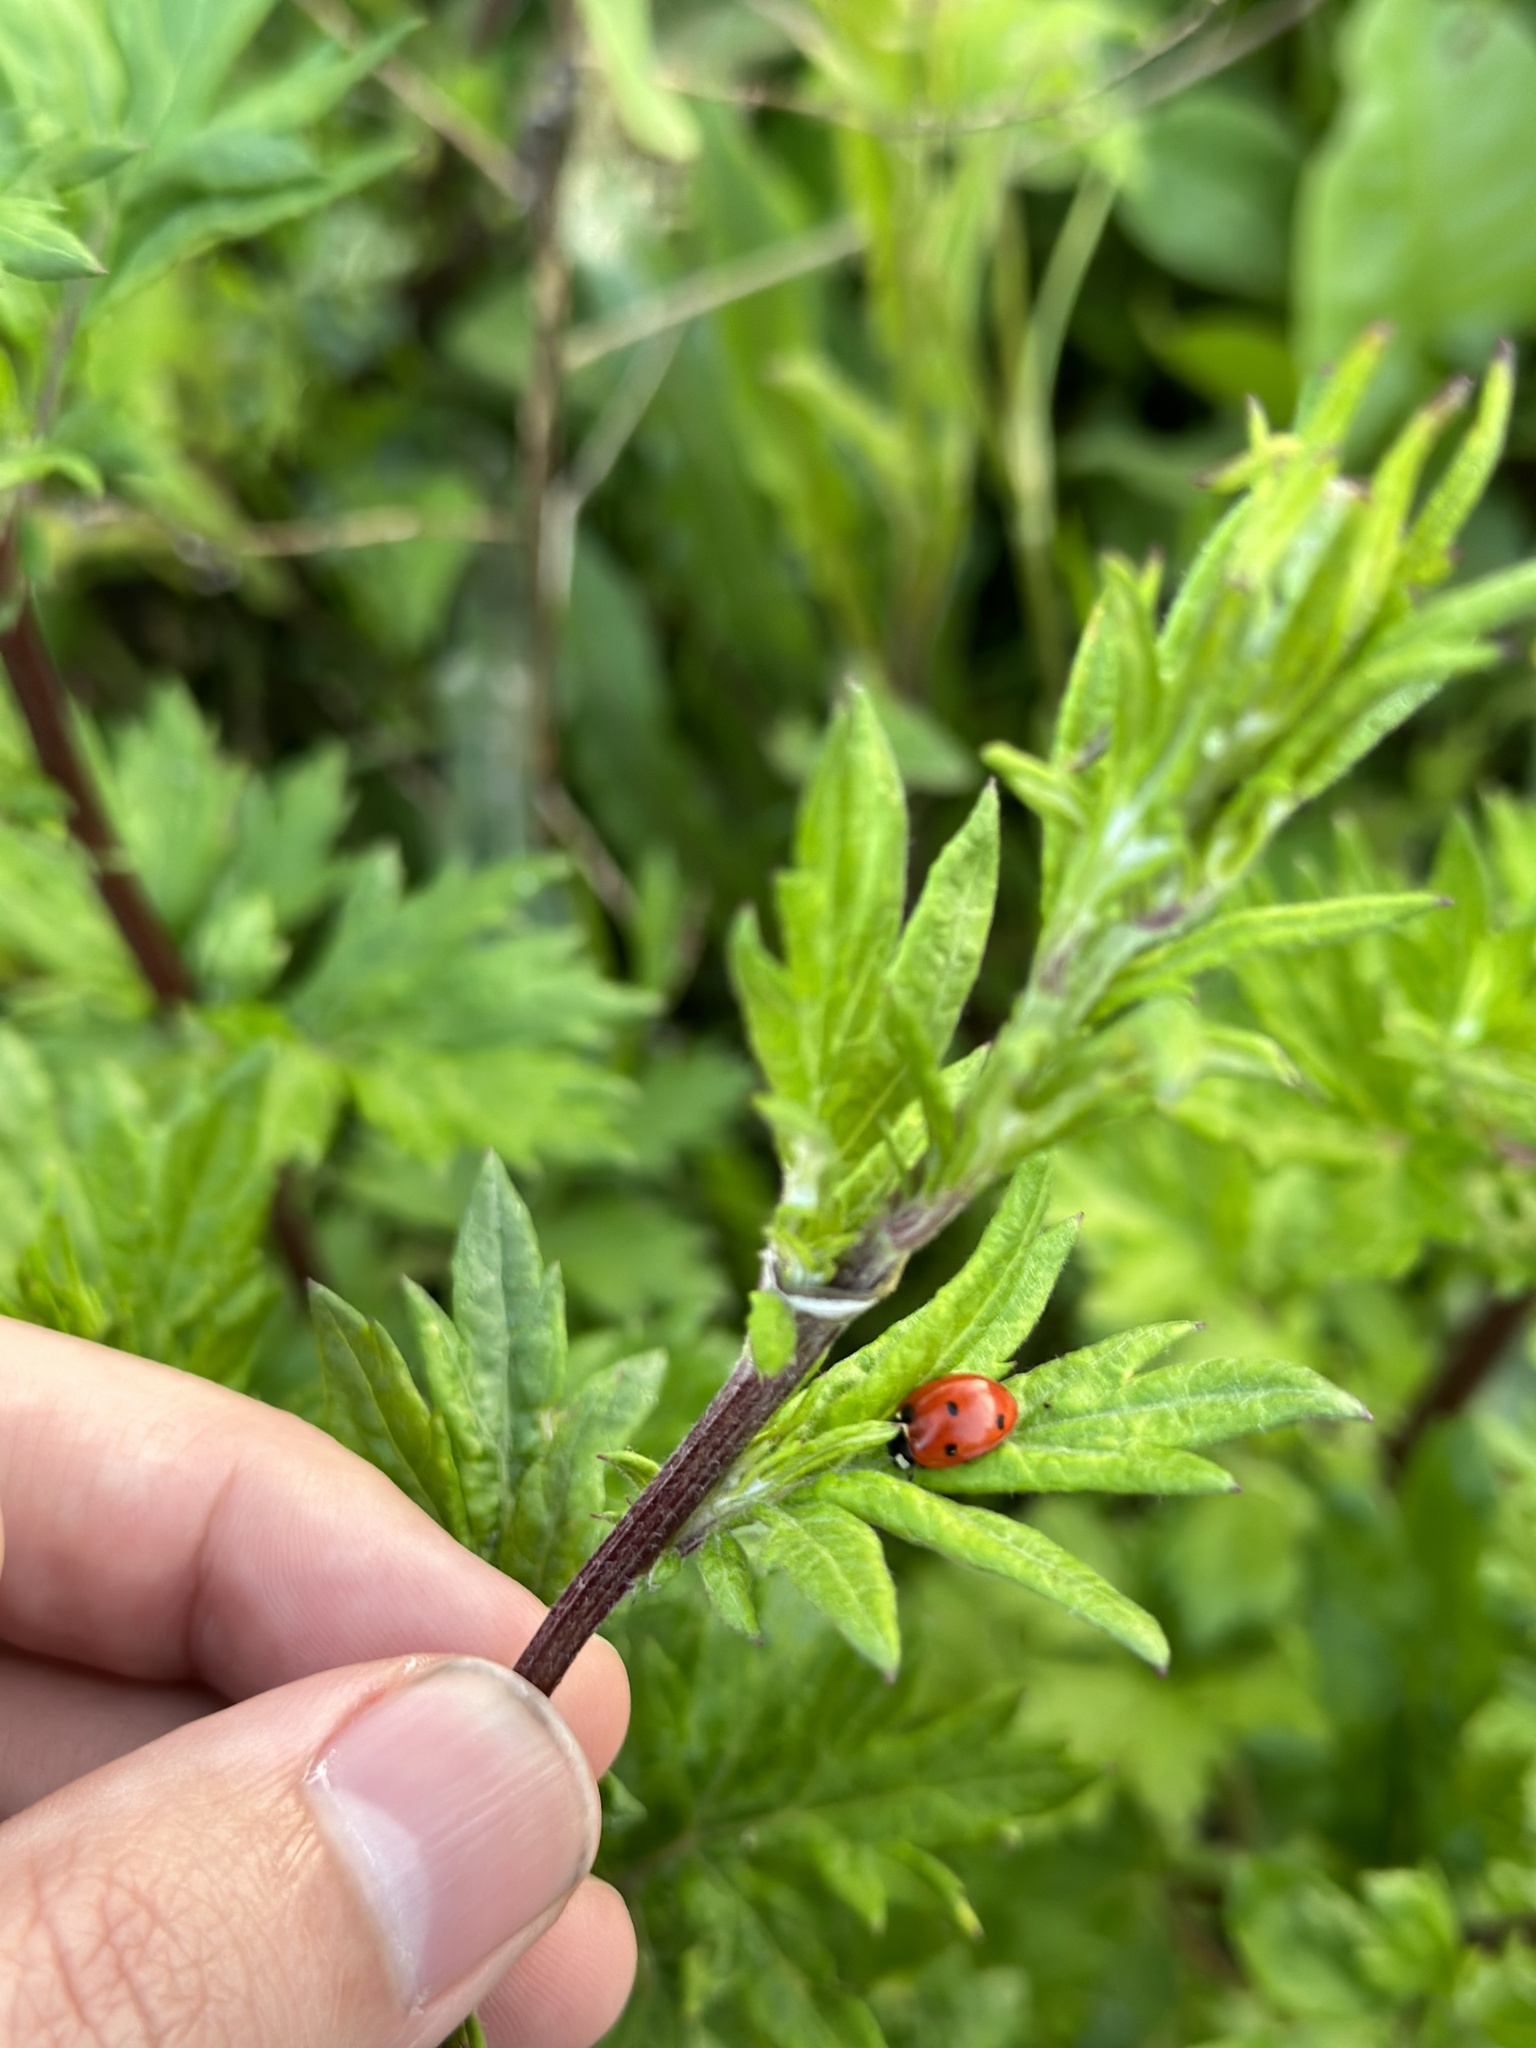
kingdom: Animalia
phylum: Arthropoda
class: Insecta
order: Coleoptera
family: Coccinellidae
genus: Coccinella
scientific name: Coccinella septempunctata
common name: Sevenspotted lady beetle
